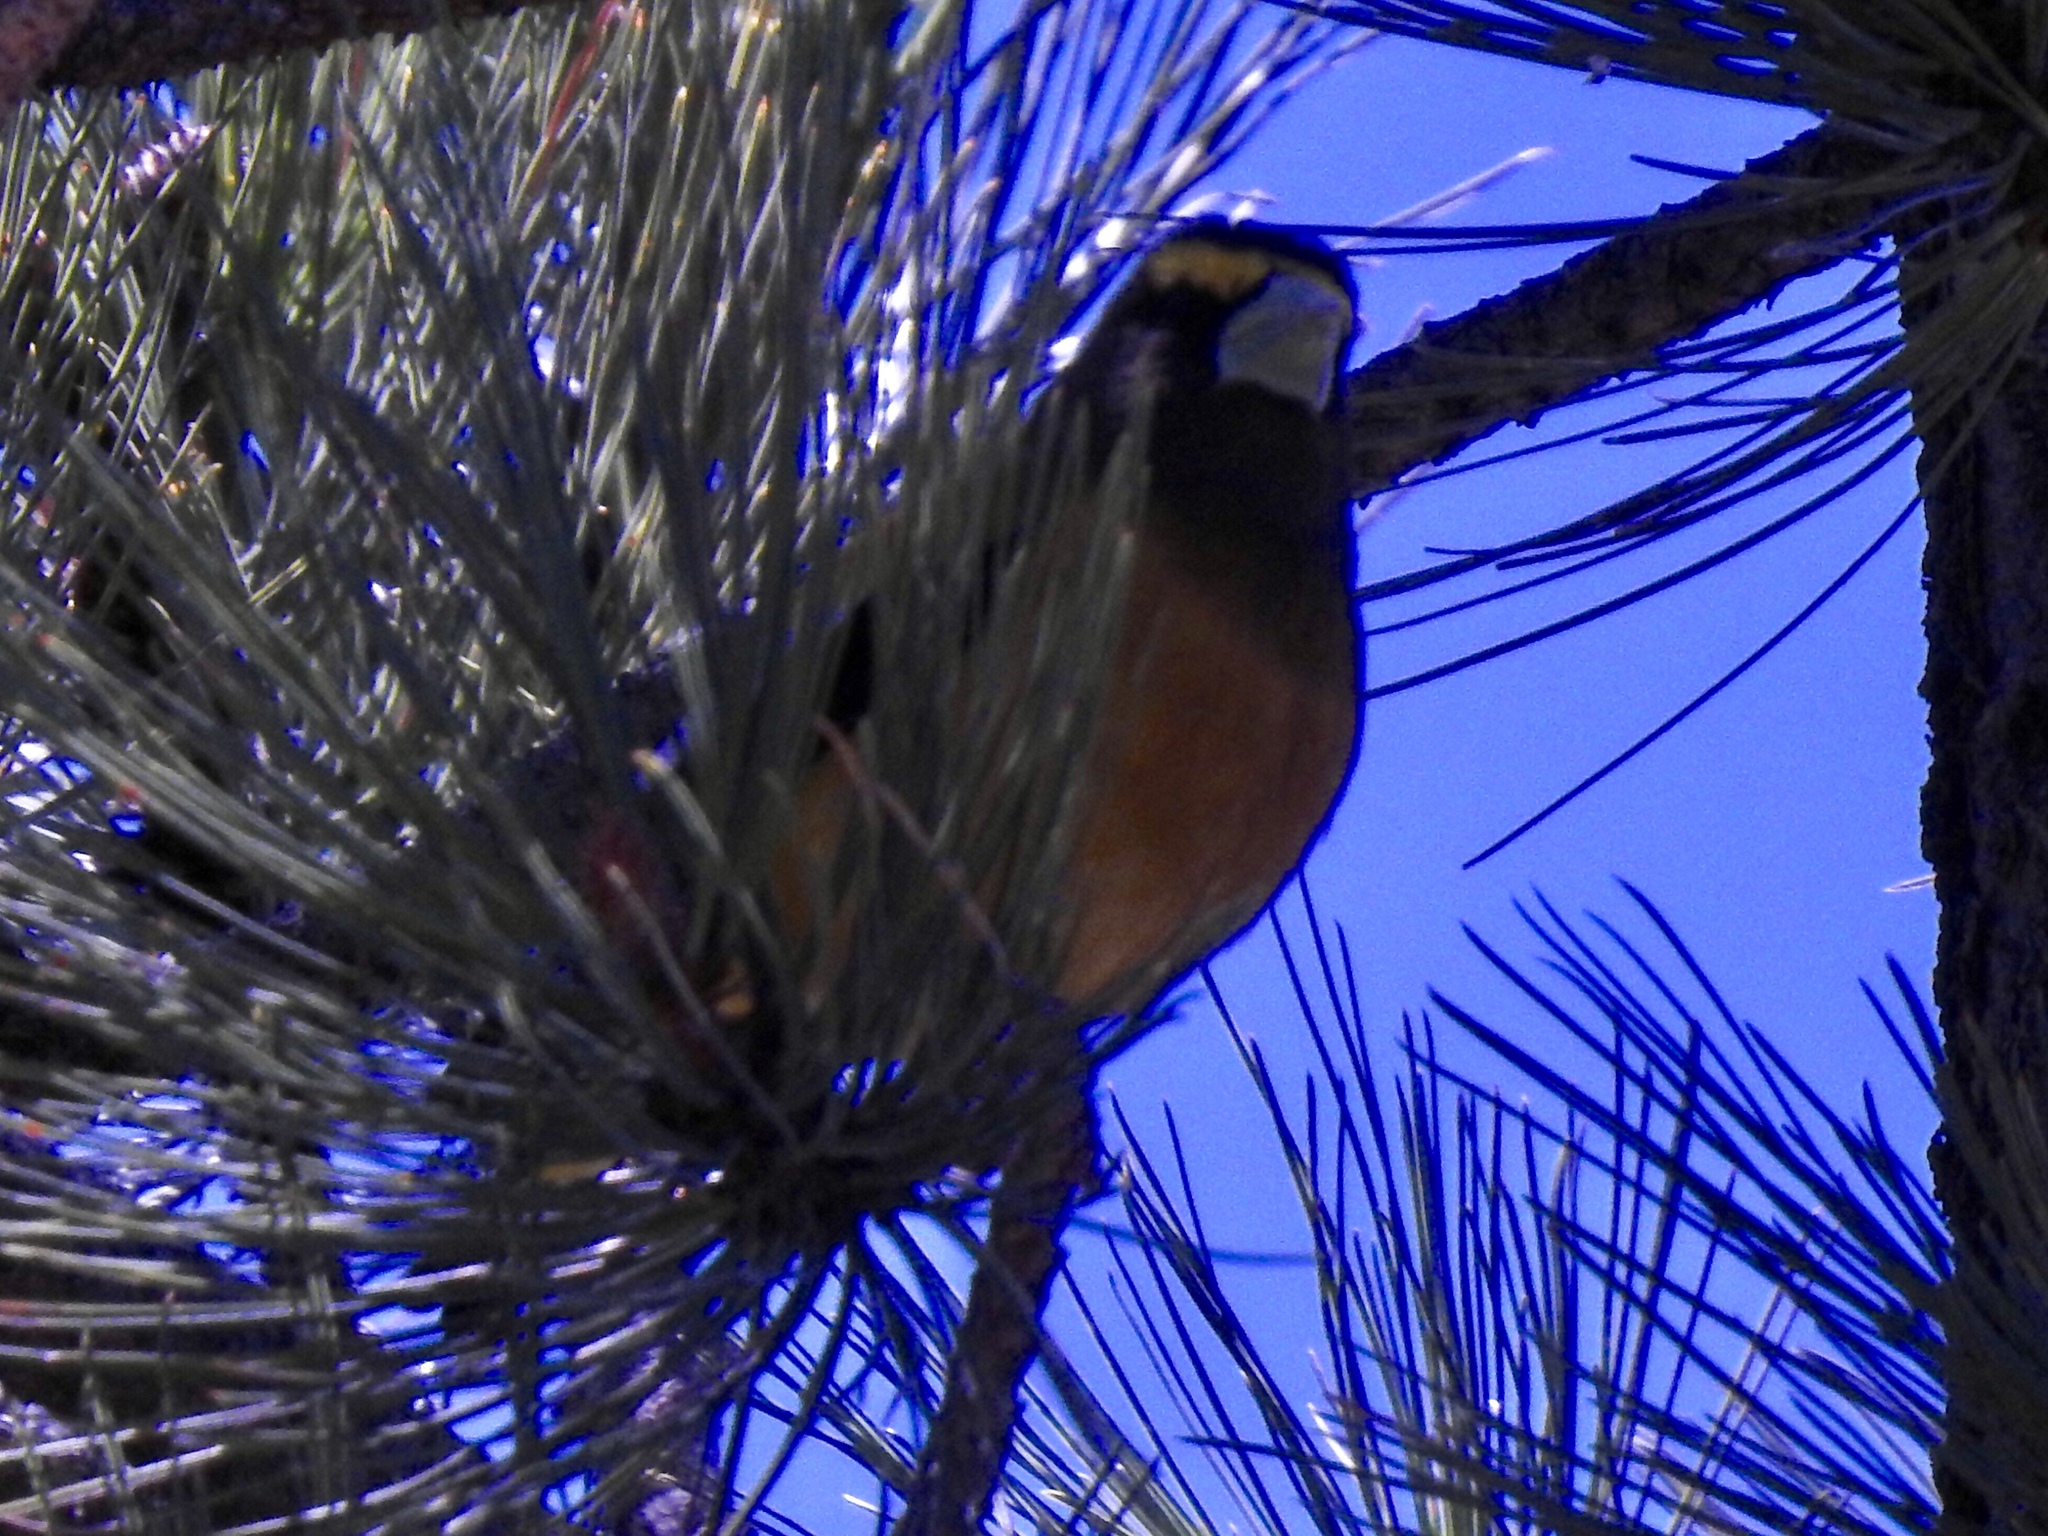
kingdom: Animalia
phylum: Chordata
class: Aves
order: Passeriformes
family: Fringillidae
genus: Hesperiphona
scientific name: Hesperiphona vespertina
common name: Evening grosbeak
